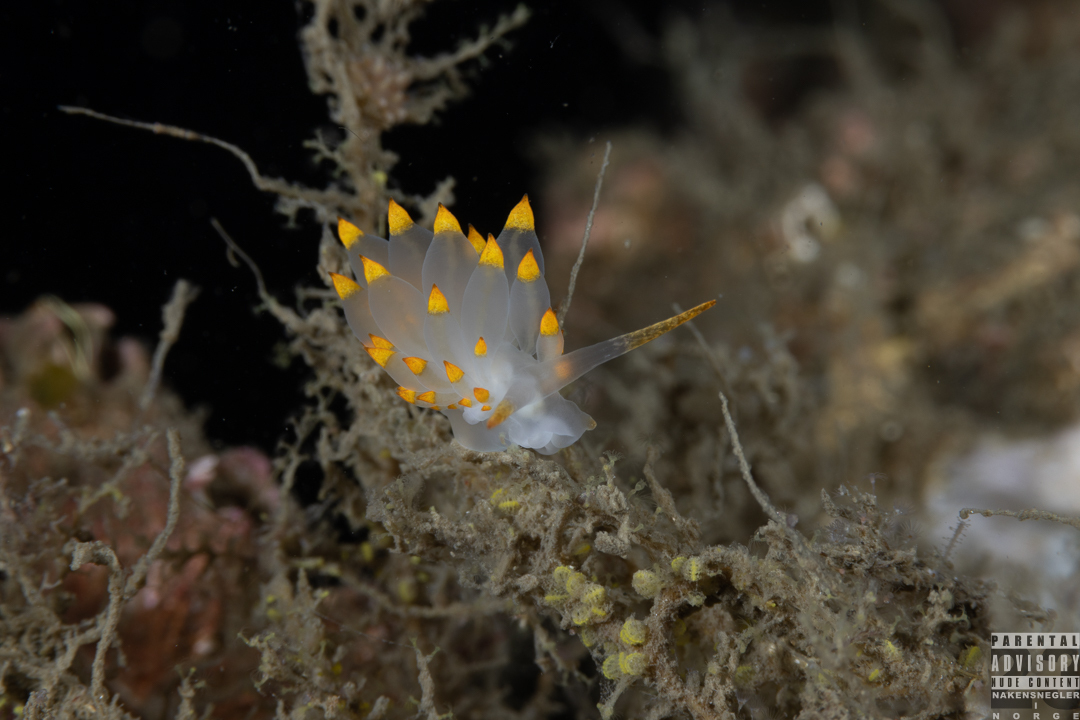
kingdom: Animalia
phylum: Mollusca
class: Gastropoda
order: Nudibranchia
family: Eubranchidae
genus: Amphorina
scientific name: Amphorina farrani
